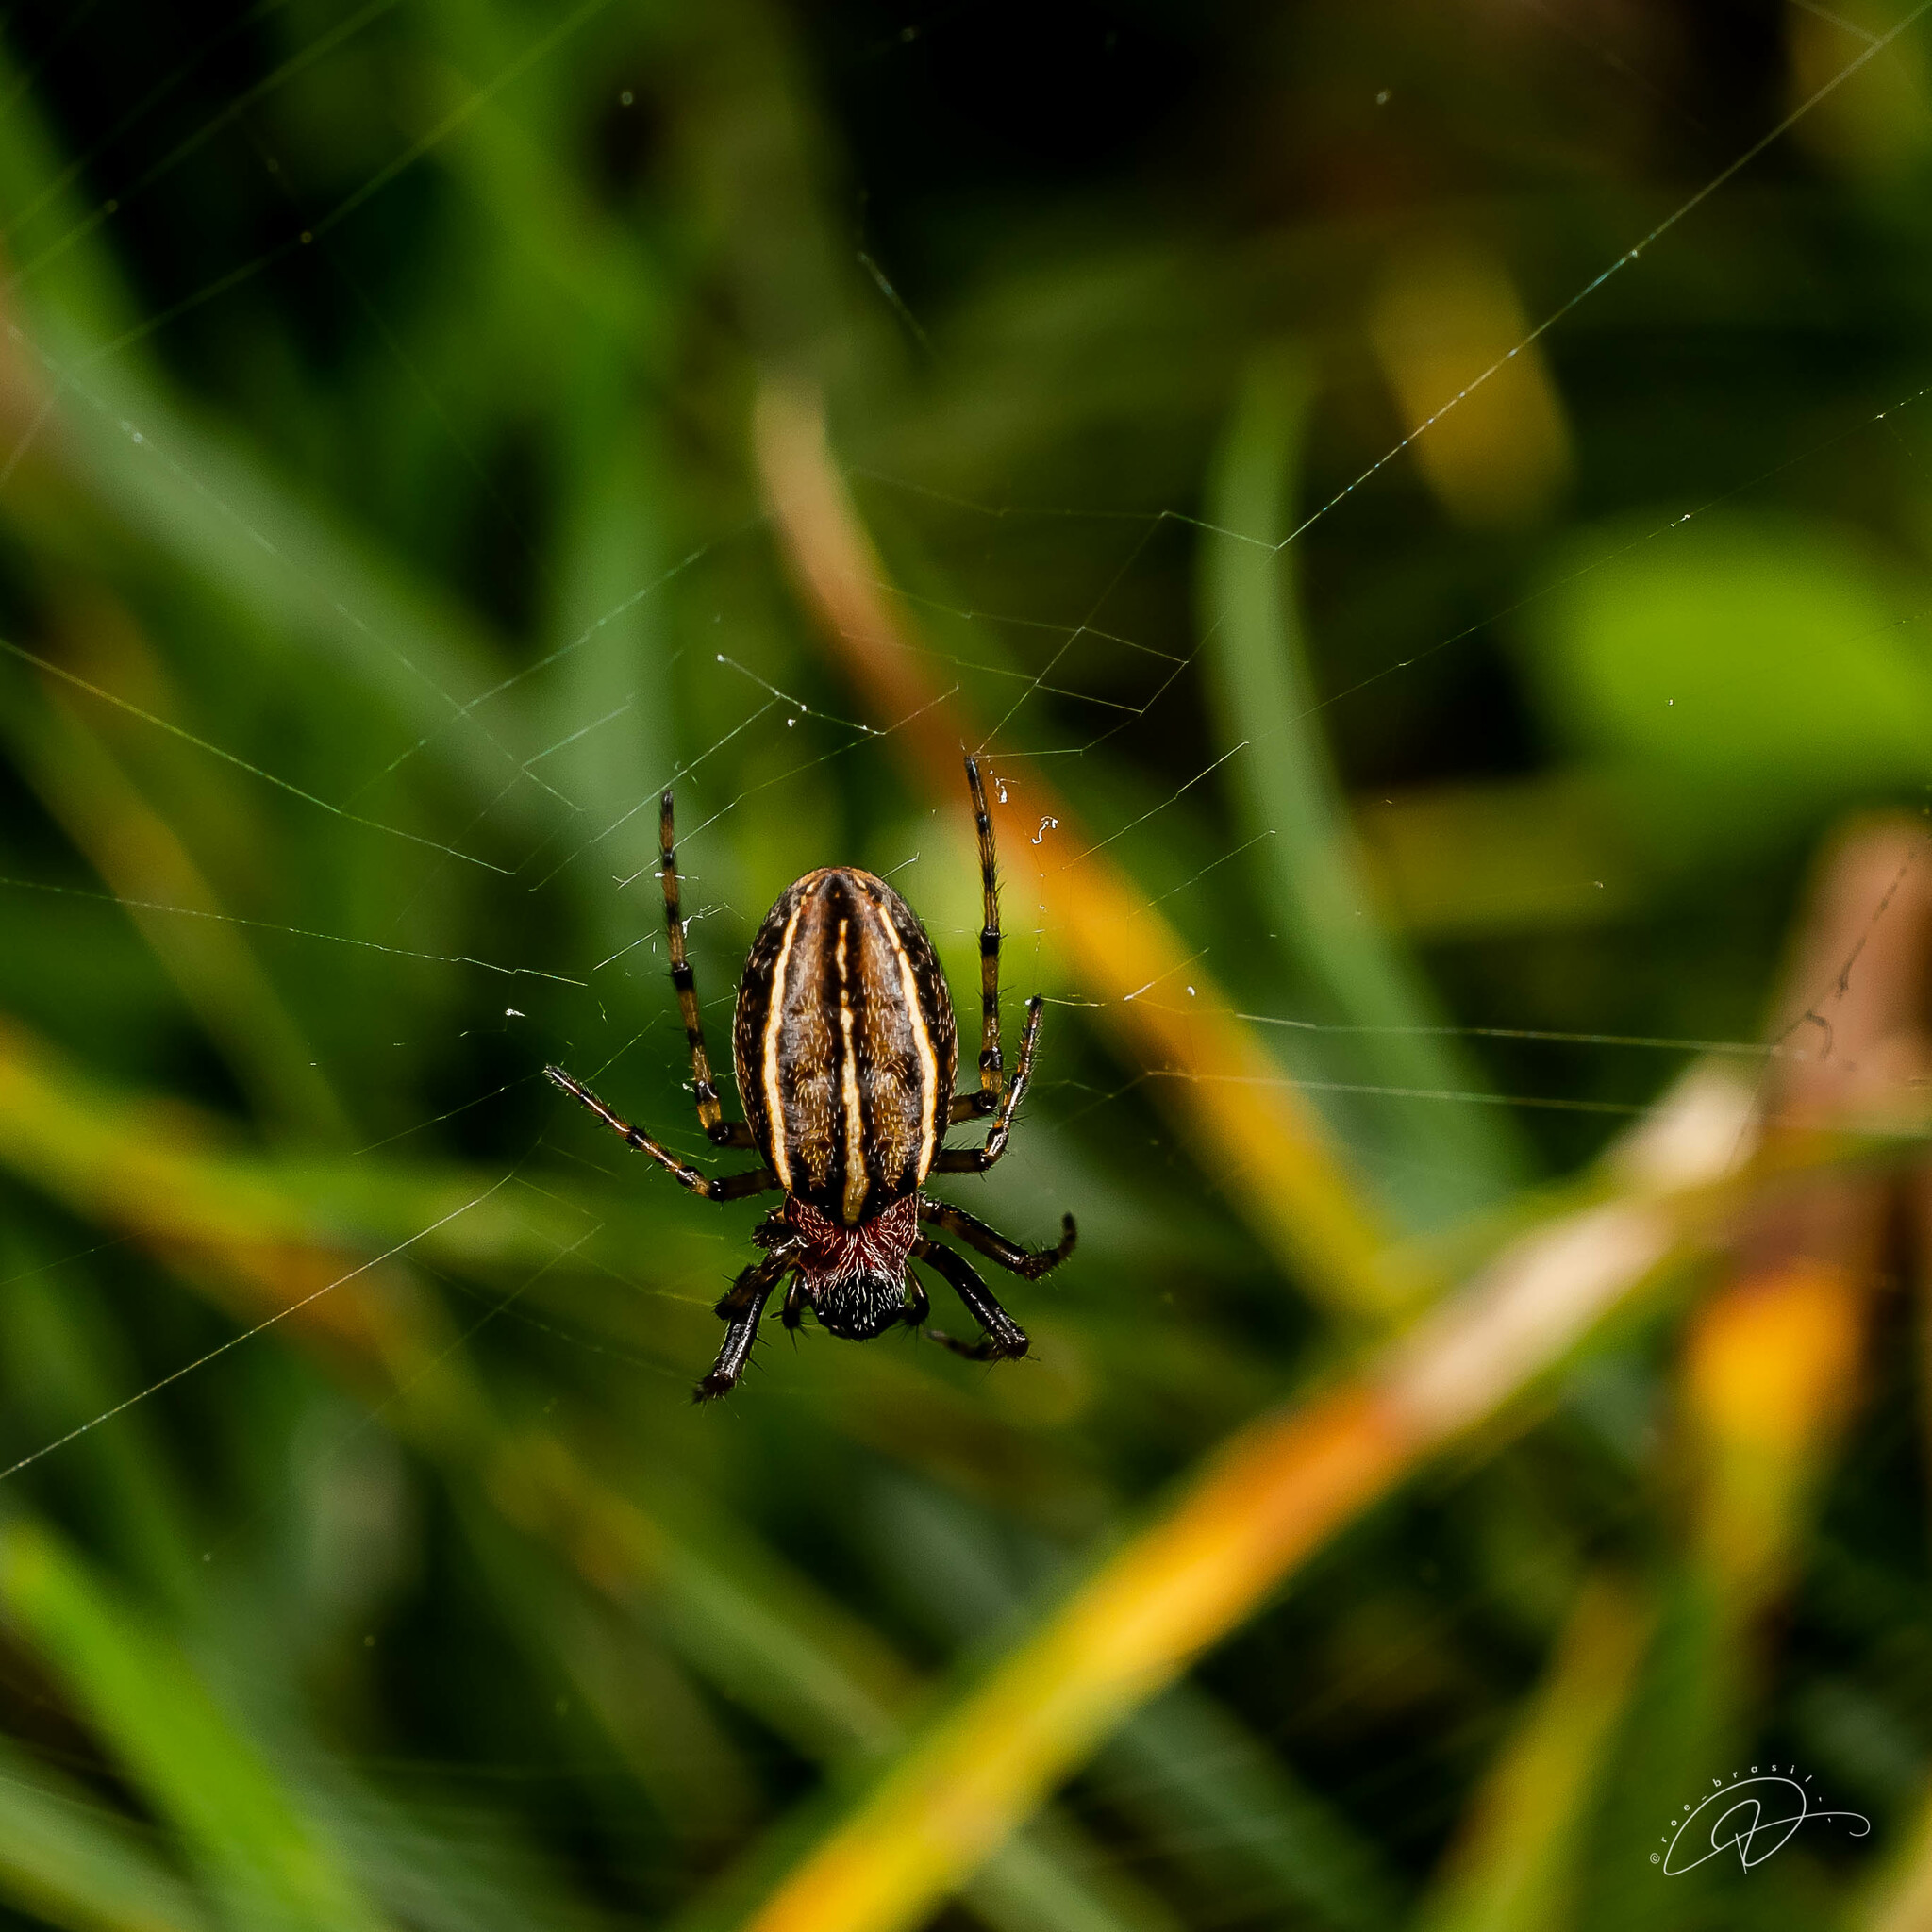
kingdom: Animalia
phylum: Arthropoda
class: Arachnida
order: Araneae
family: Araneidae
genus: Alpaida
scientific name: Alpaida leucogramma
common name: Orb weavers
